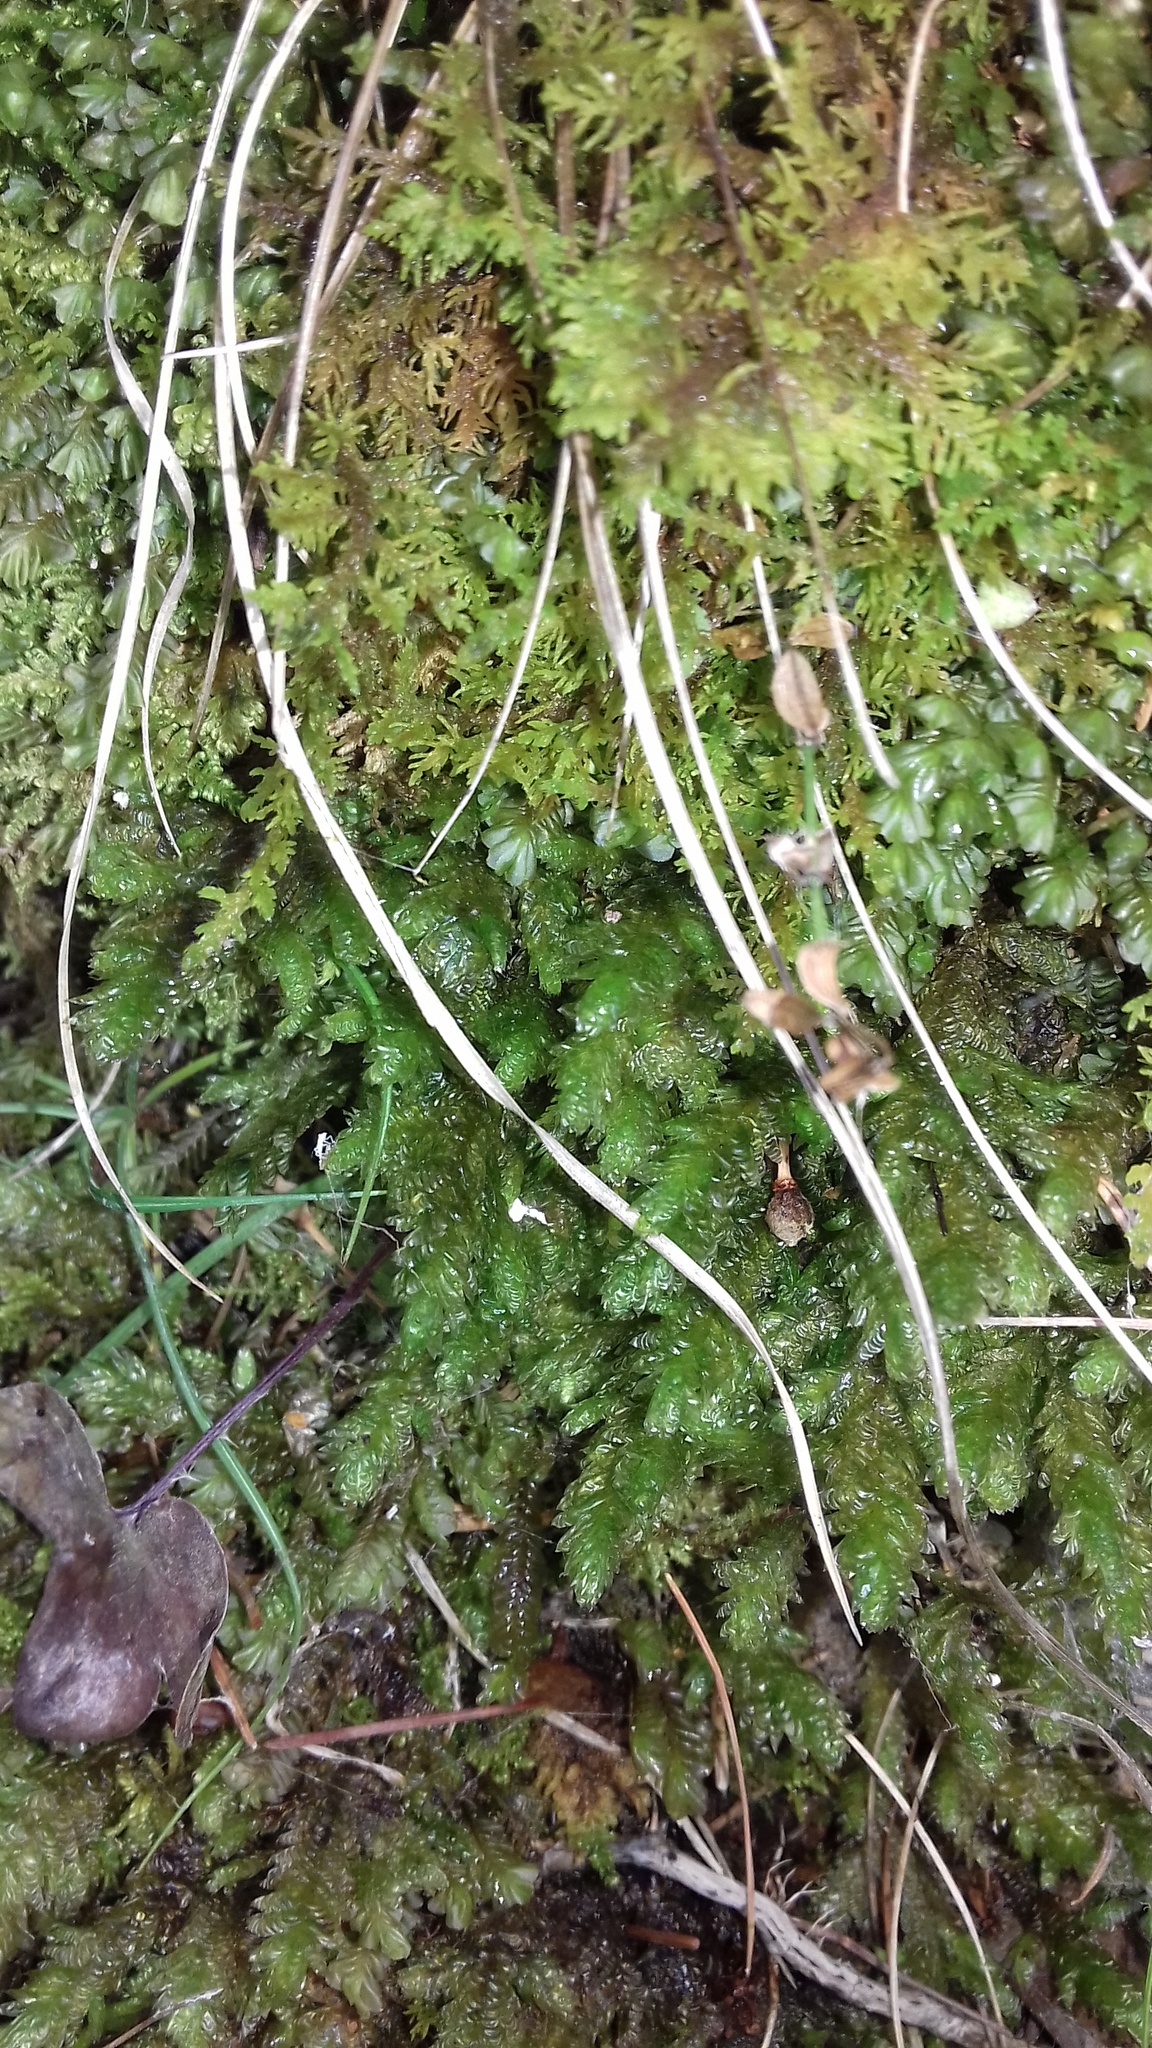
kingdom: Plantae
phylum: Bryophyta
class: Bryopsida
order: Hypnales
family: Neckeraceae
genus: Exsertotheca
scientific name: Exsertotheca crispa
